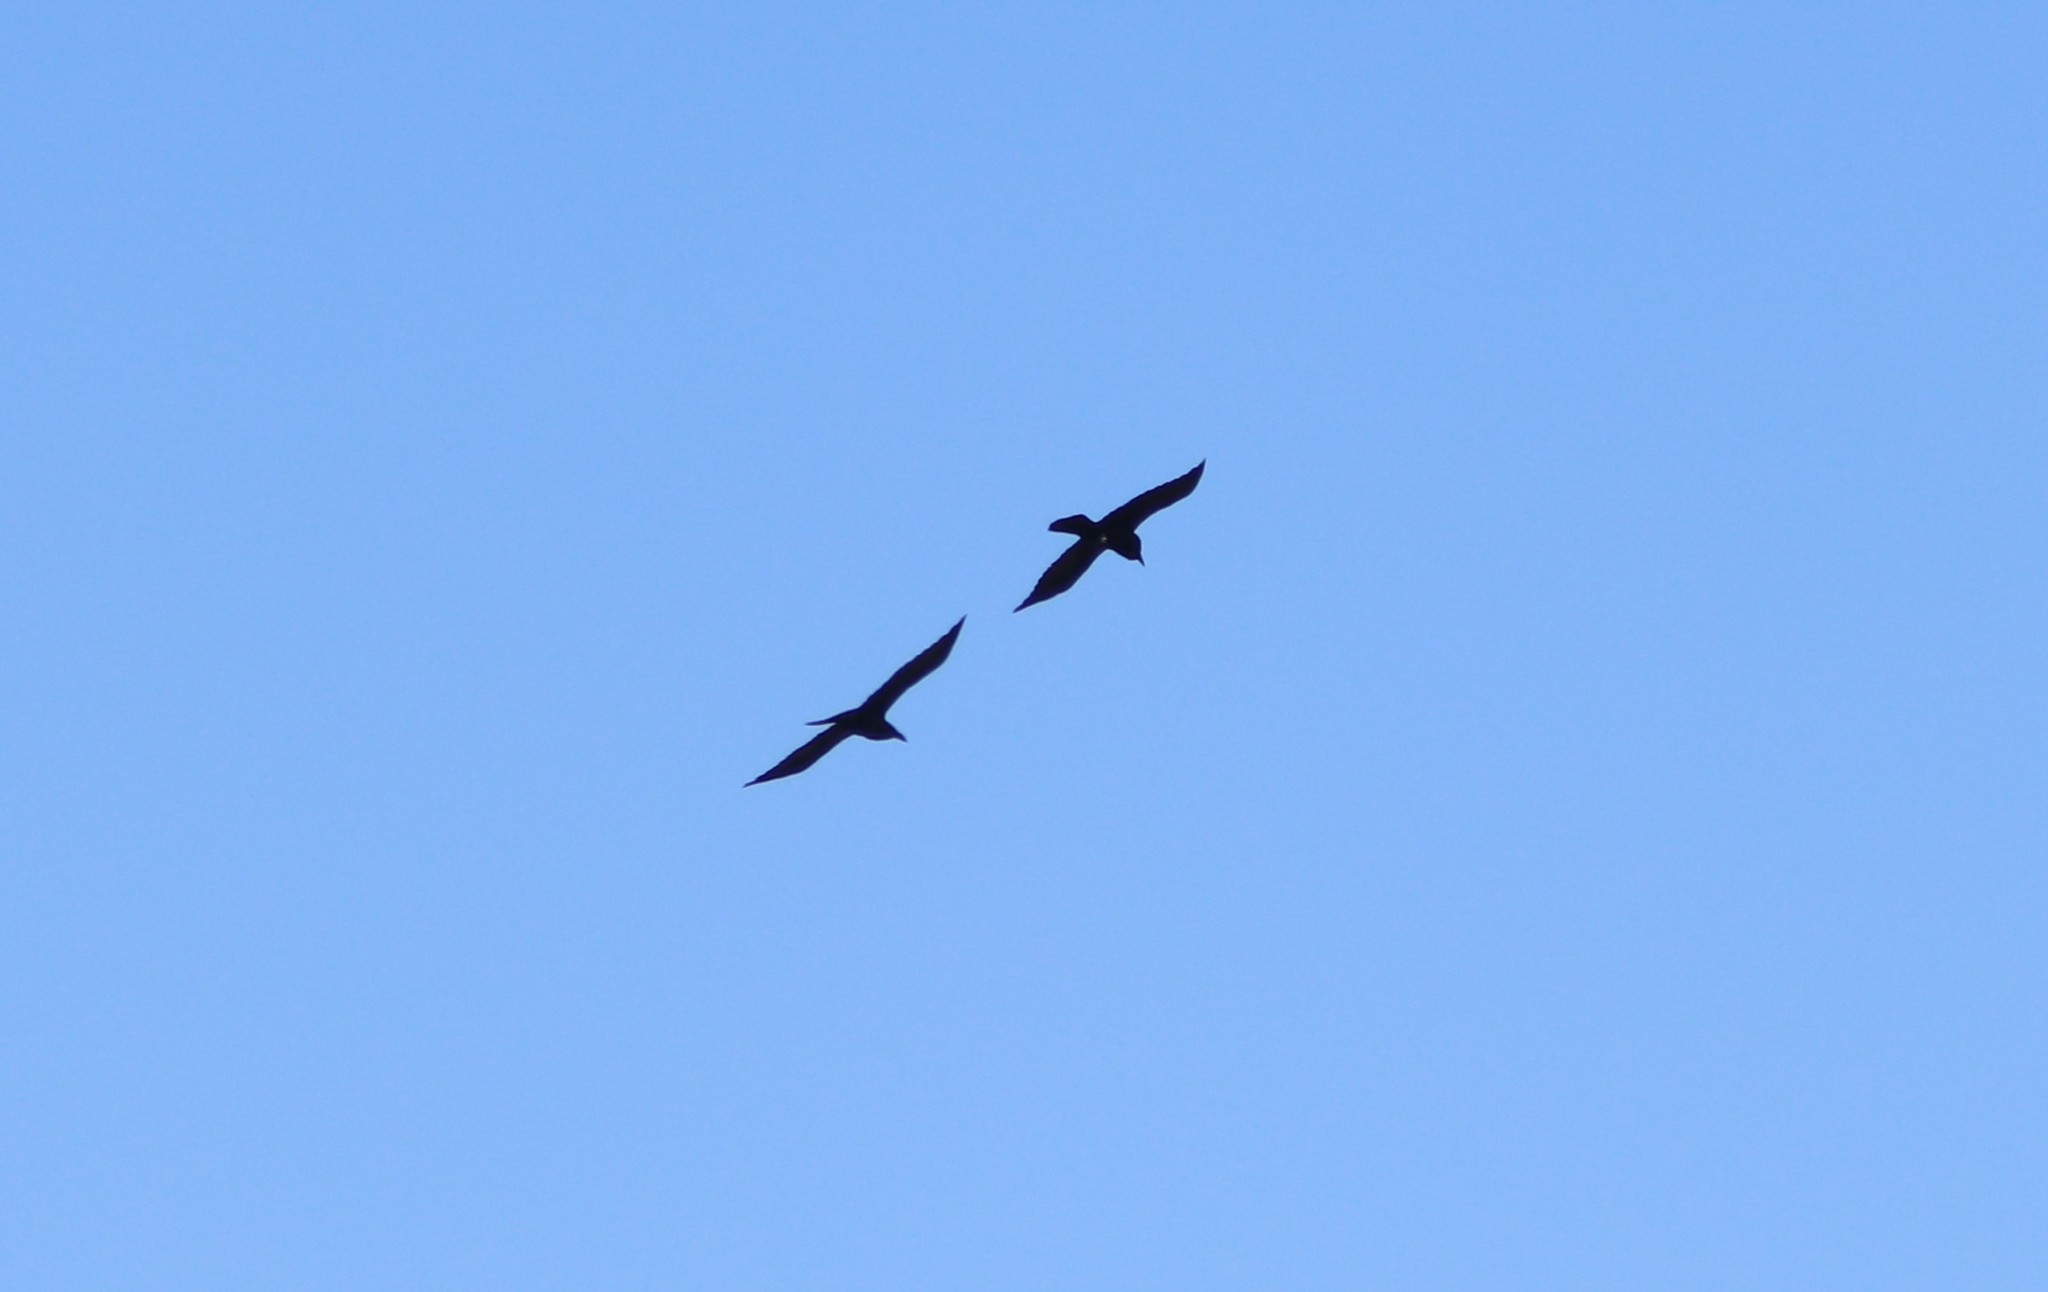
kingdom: Animalia
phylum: Chordata
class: Aves
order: Passeriformes
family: Corvidae
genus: Corvus
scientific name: Corvus corax
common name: Common raven
